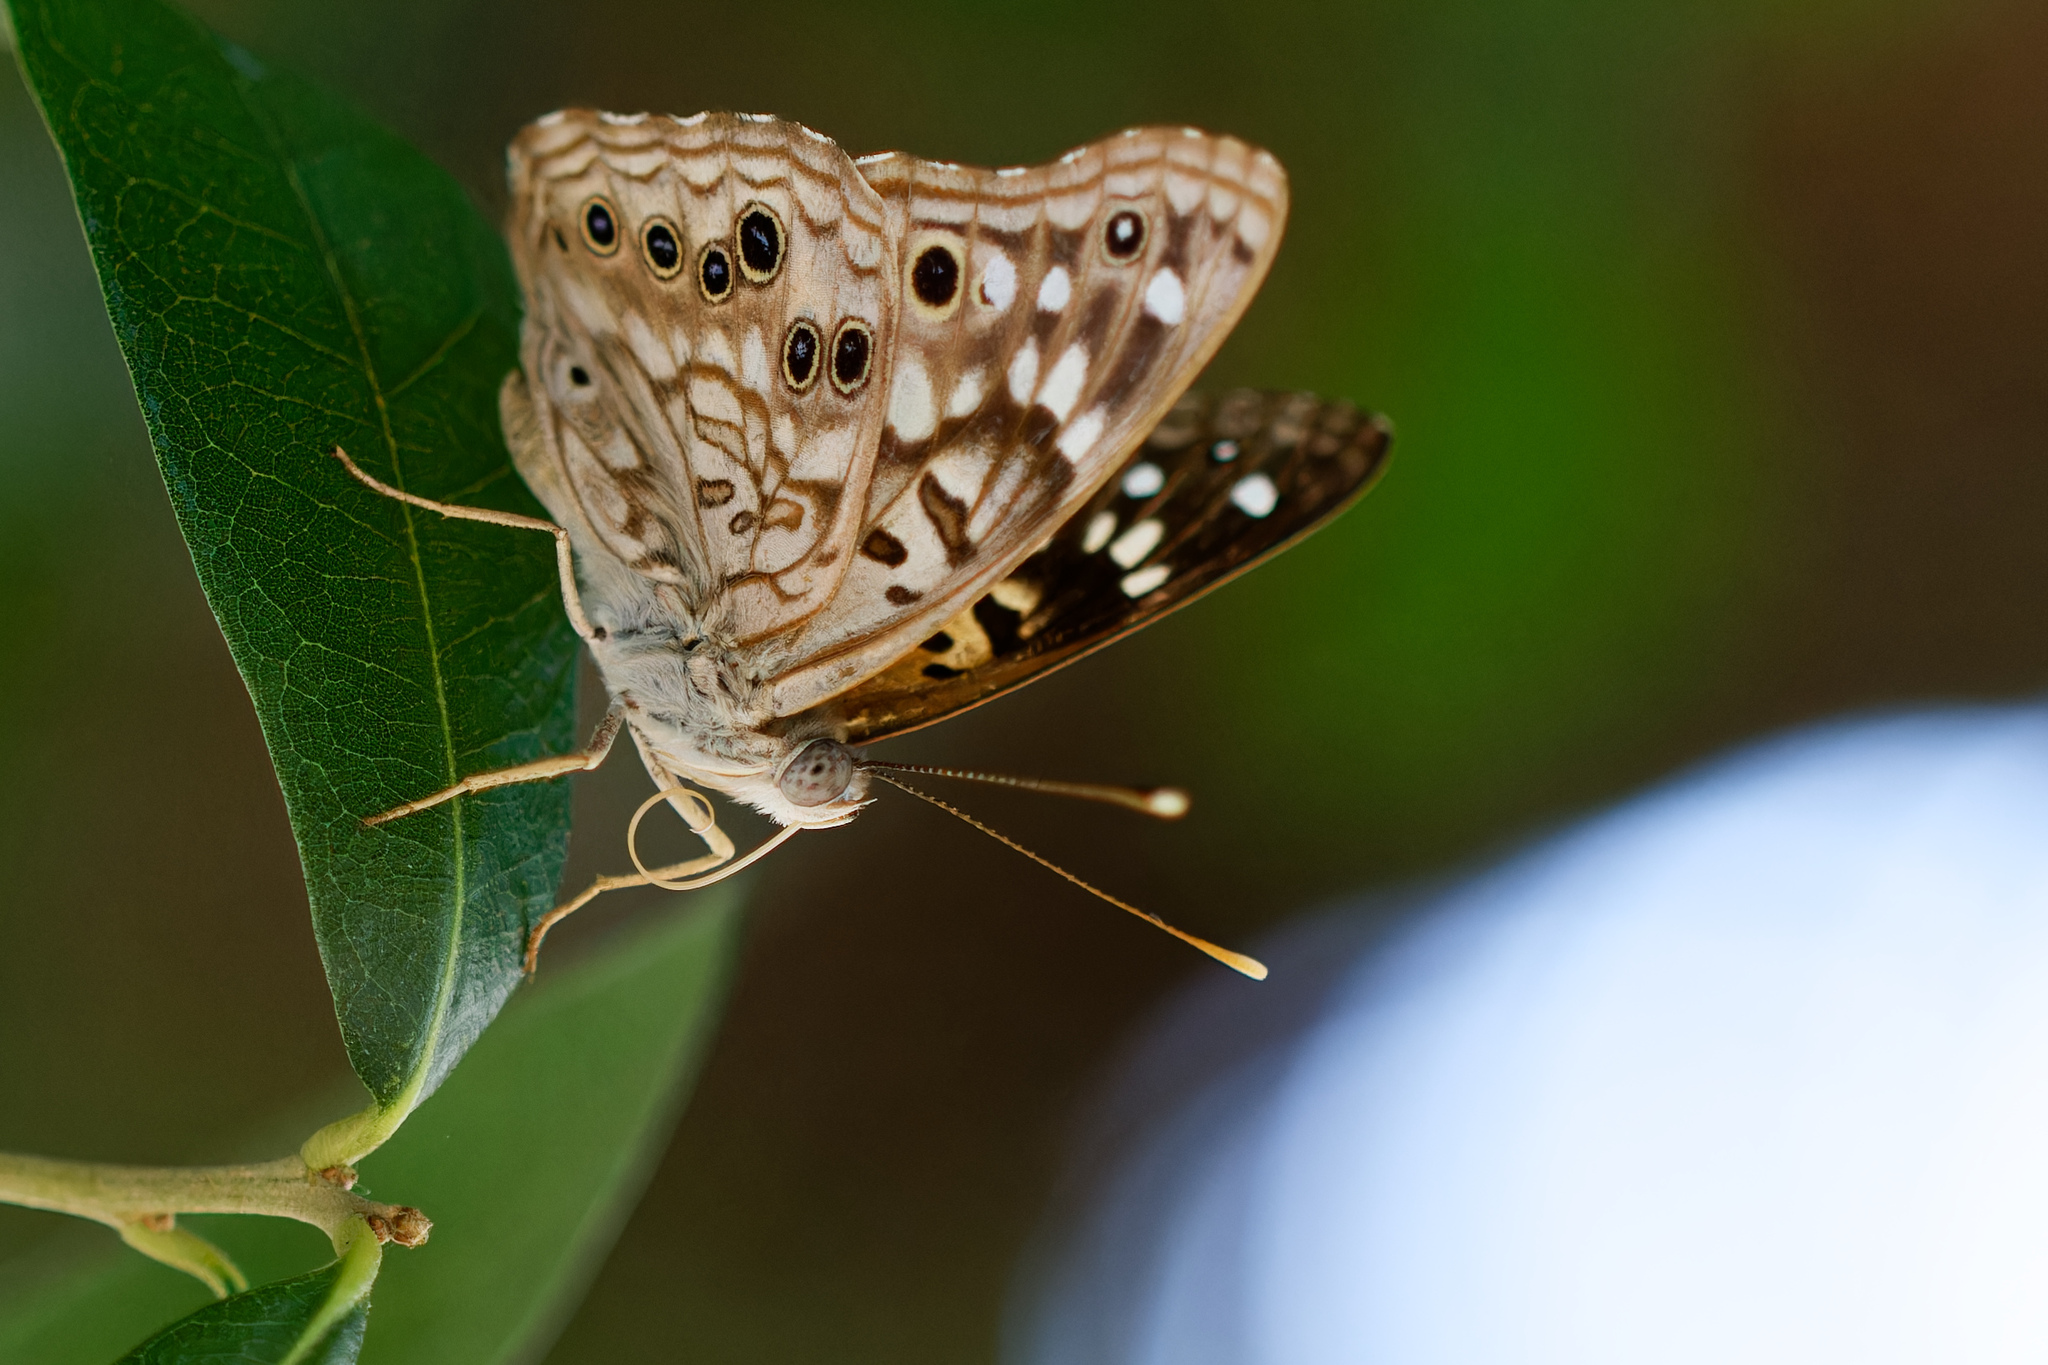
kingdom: Animalia
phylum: Arthropoda
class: Insecta
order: Lepidoptera
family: Nymphalidae
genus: Asterocampa
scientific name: Asterocampa celtis
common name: Hackberry emperor
